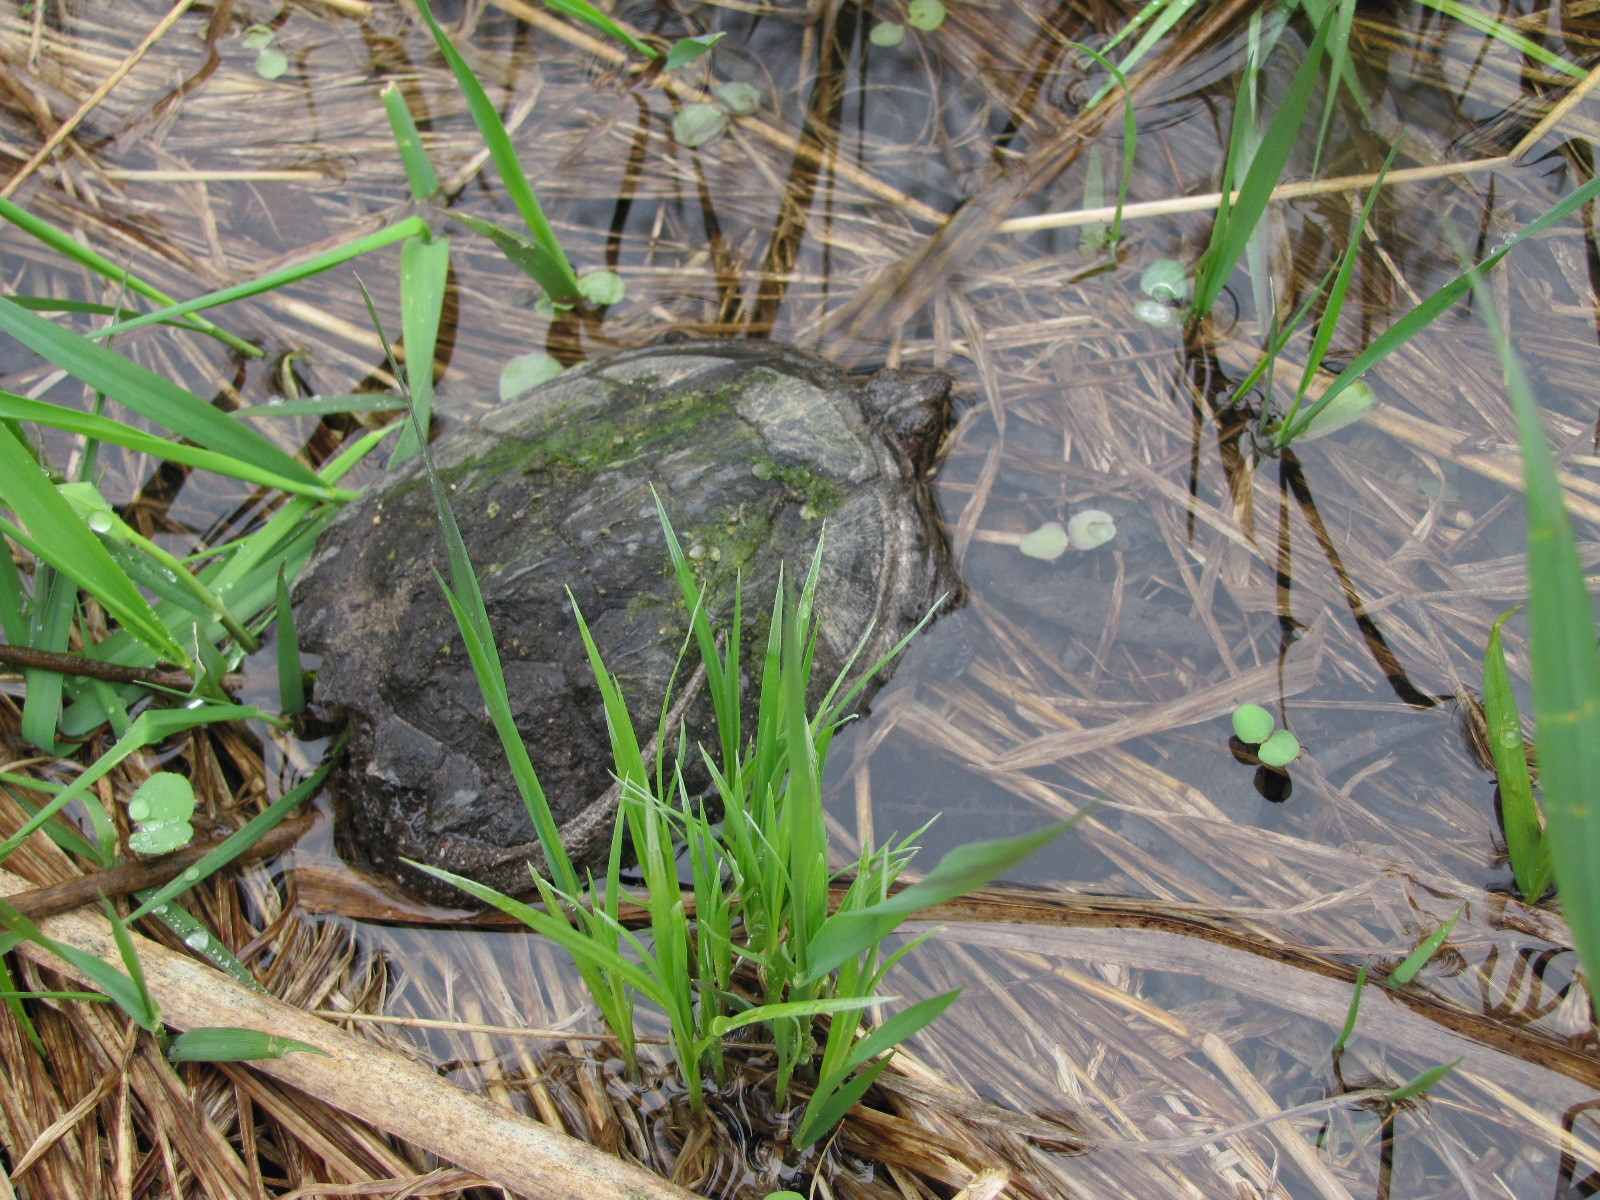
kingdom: Animalia
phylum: Chordata
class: Testudines
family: Chelydridae
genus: Chelydra
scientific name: Chelydra serpentina
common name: Common snapping turtle
